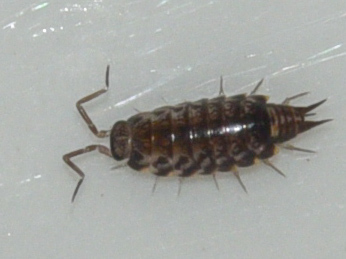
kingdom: Animalia
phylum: Arthropoda
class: Malacostraca
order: Isopoda
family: Philosciidae
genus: Australophiloscia
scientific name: Australophiloscia societatis
